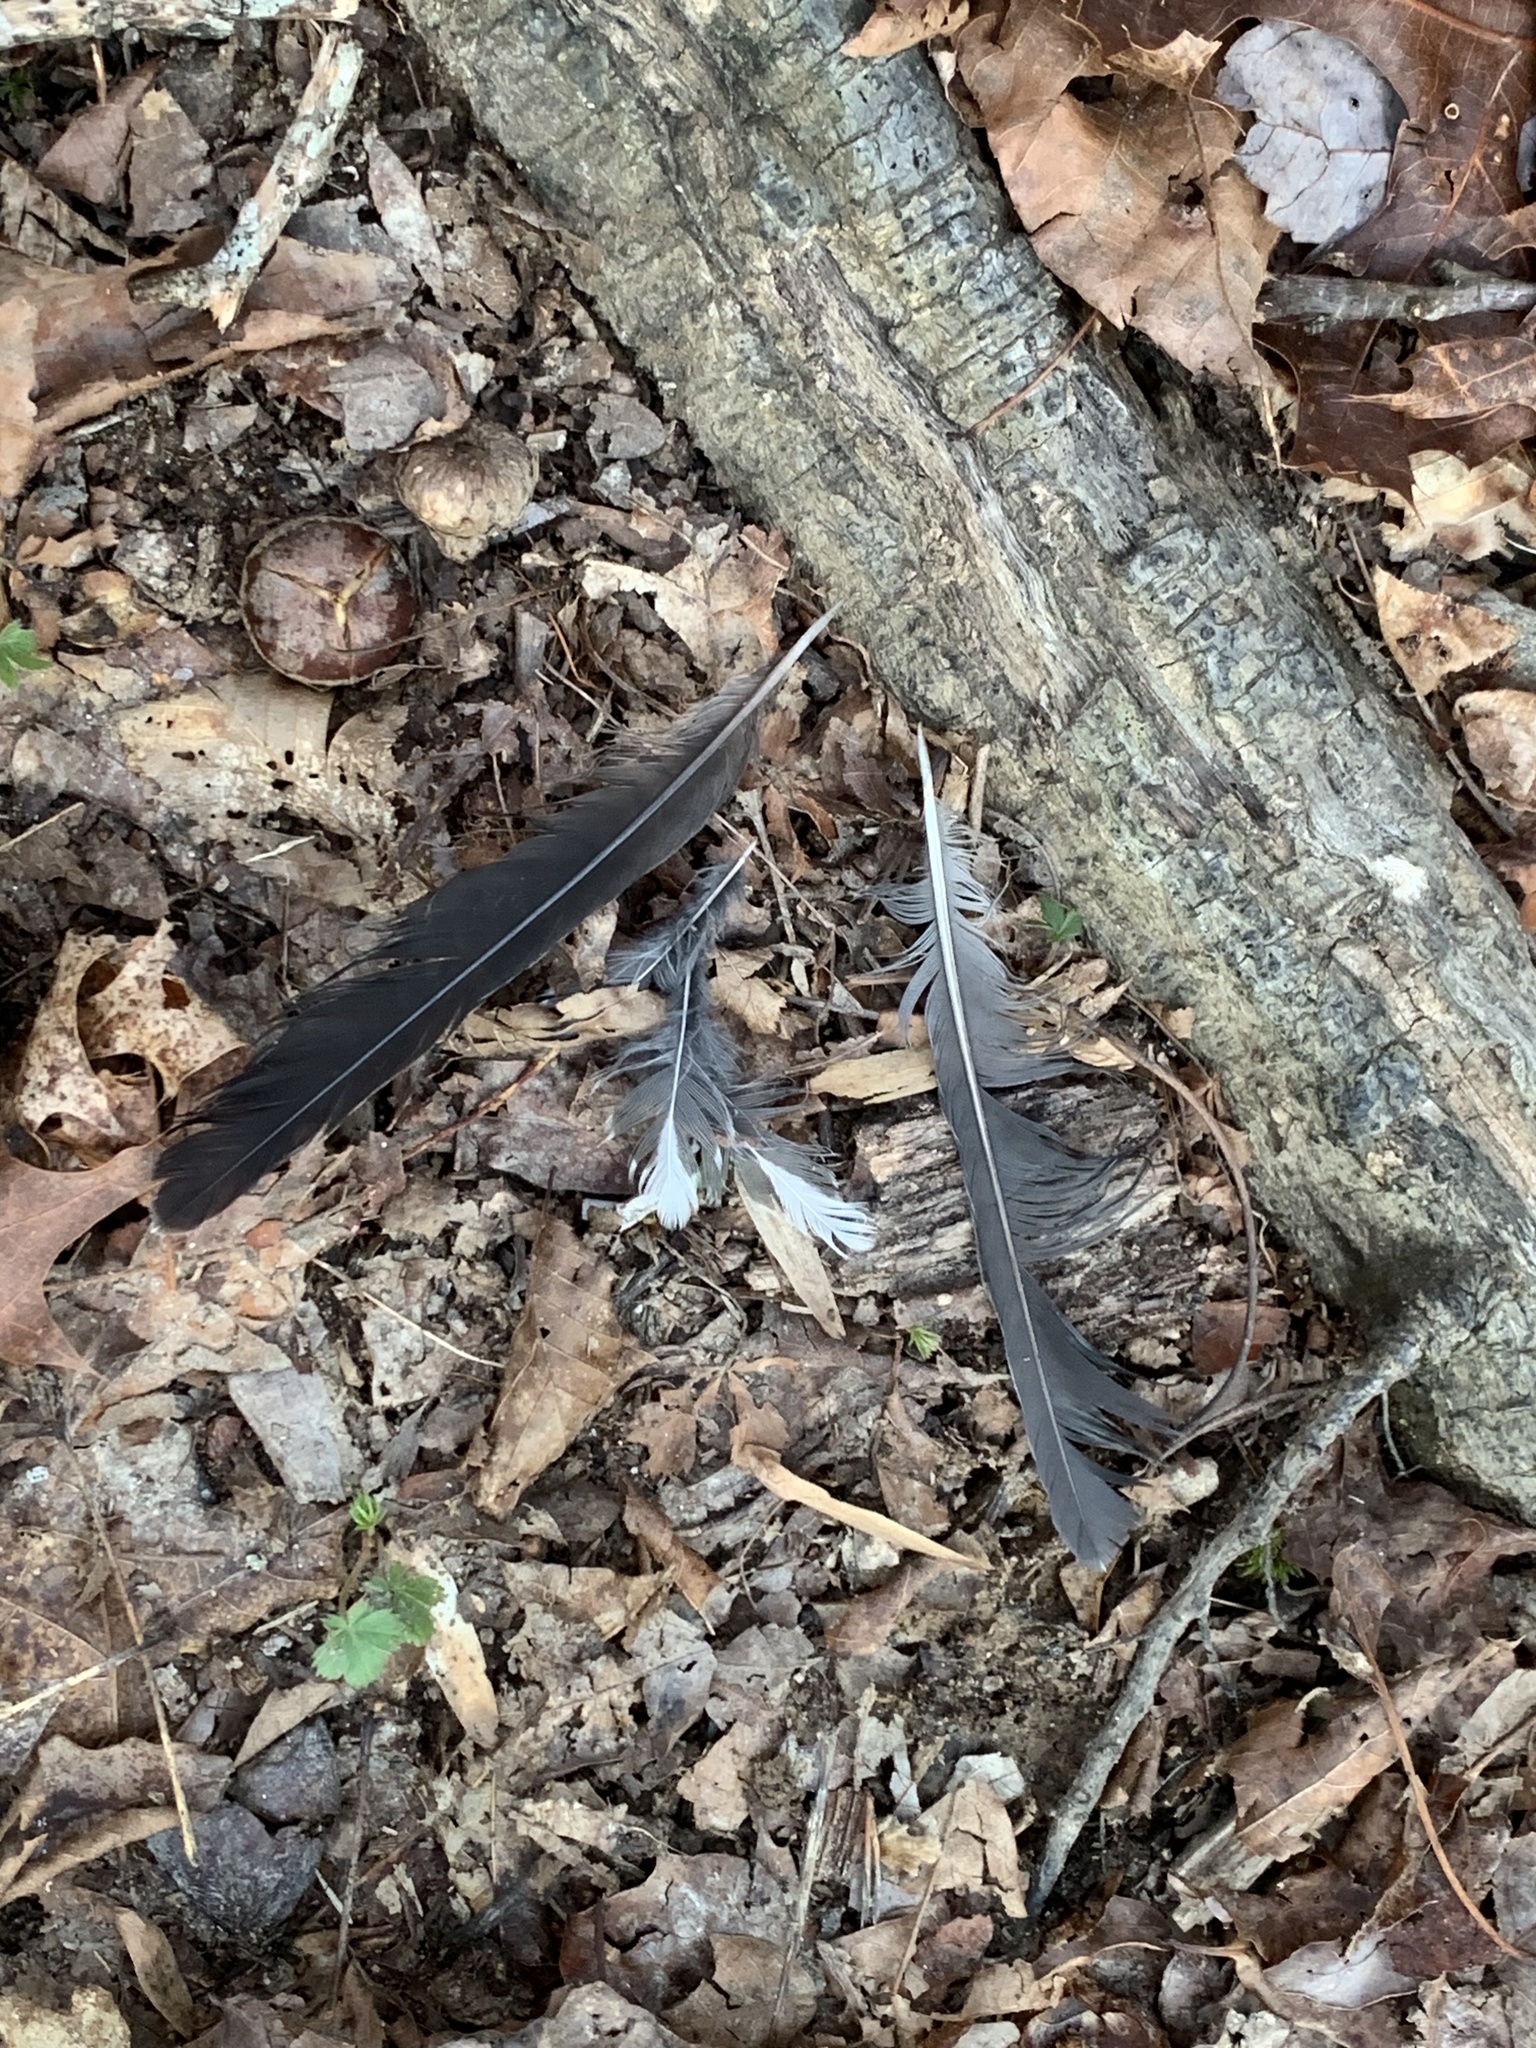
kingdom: Animalia
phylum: Chordata
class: Aves
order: Passeriformes
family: Turdidae
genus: Turdus
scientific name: Turdus migratorius
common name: American robin
